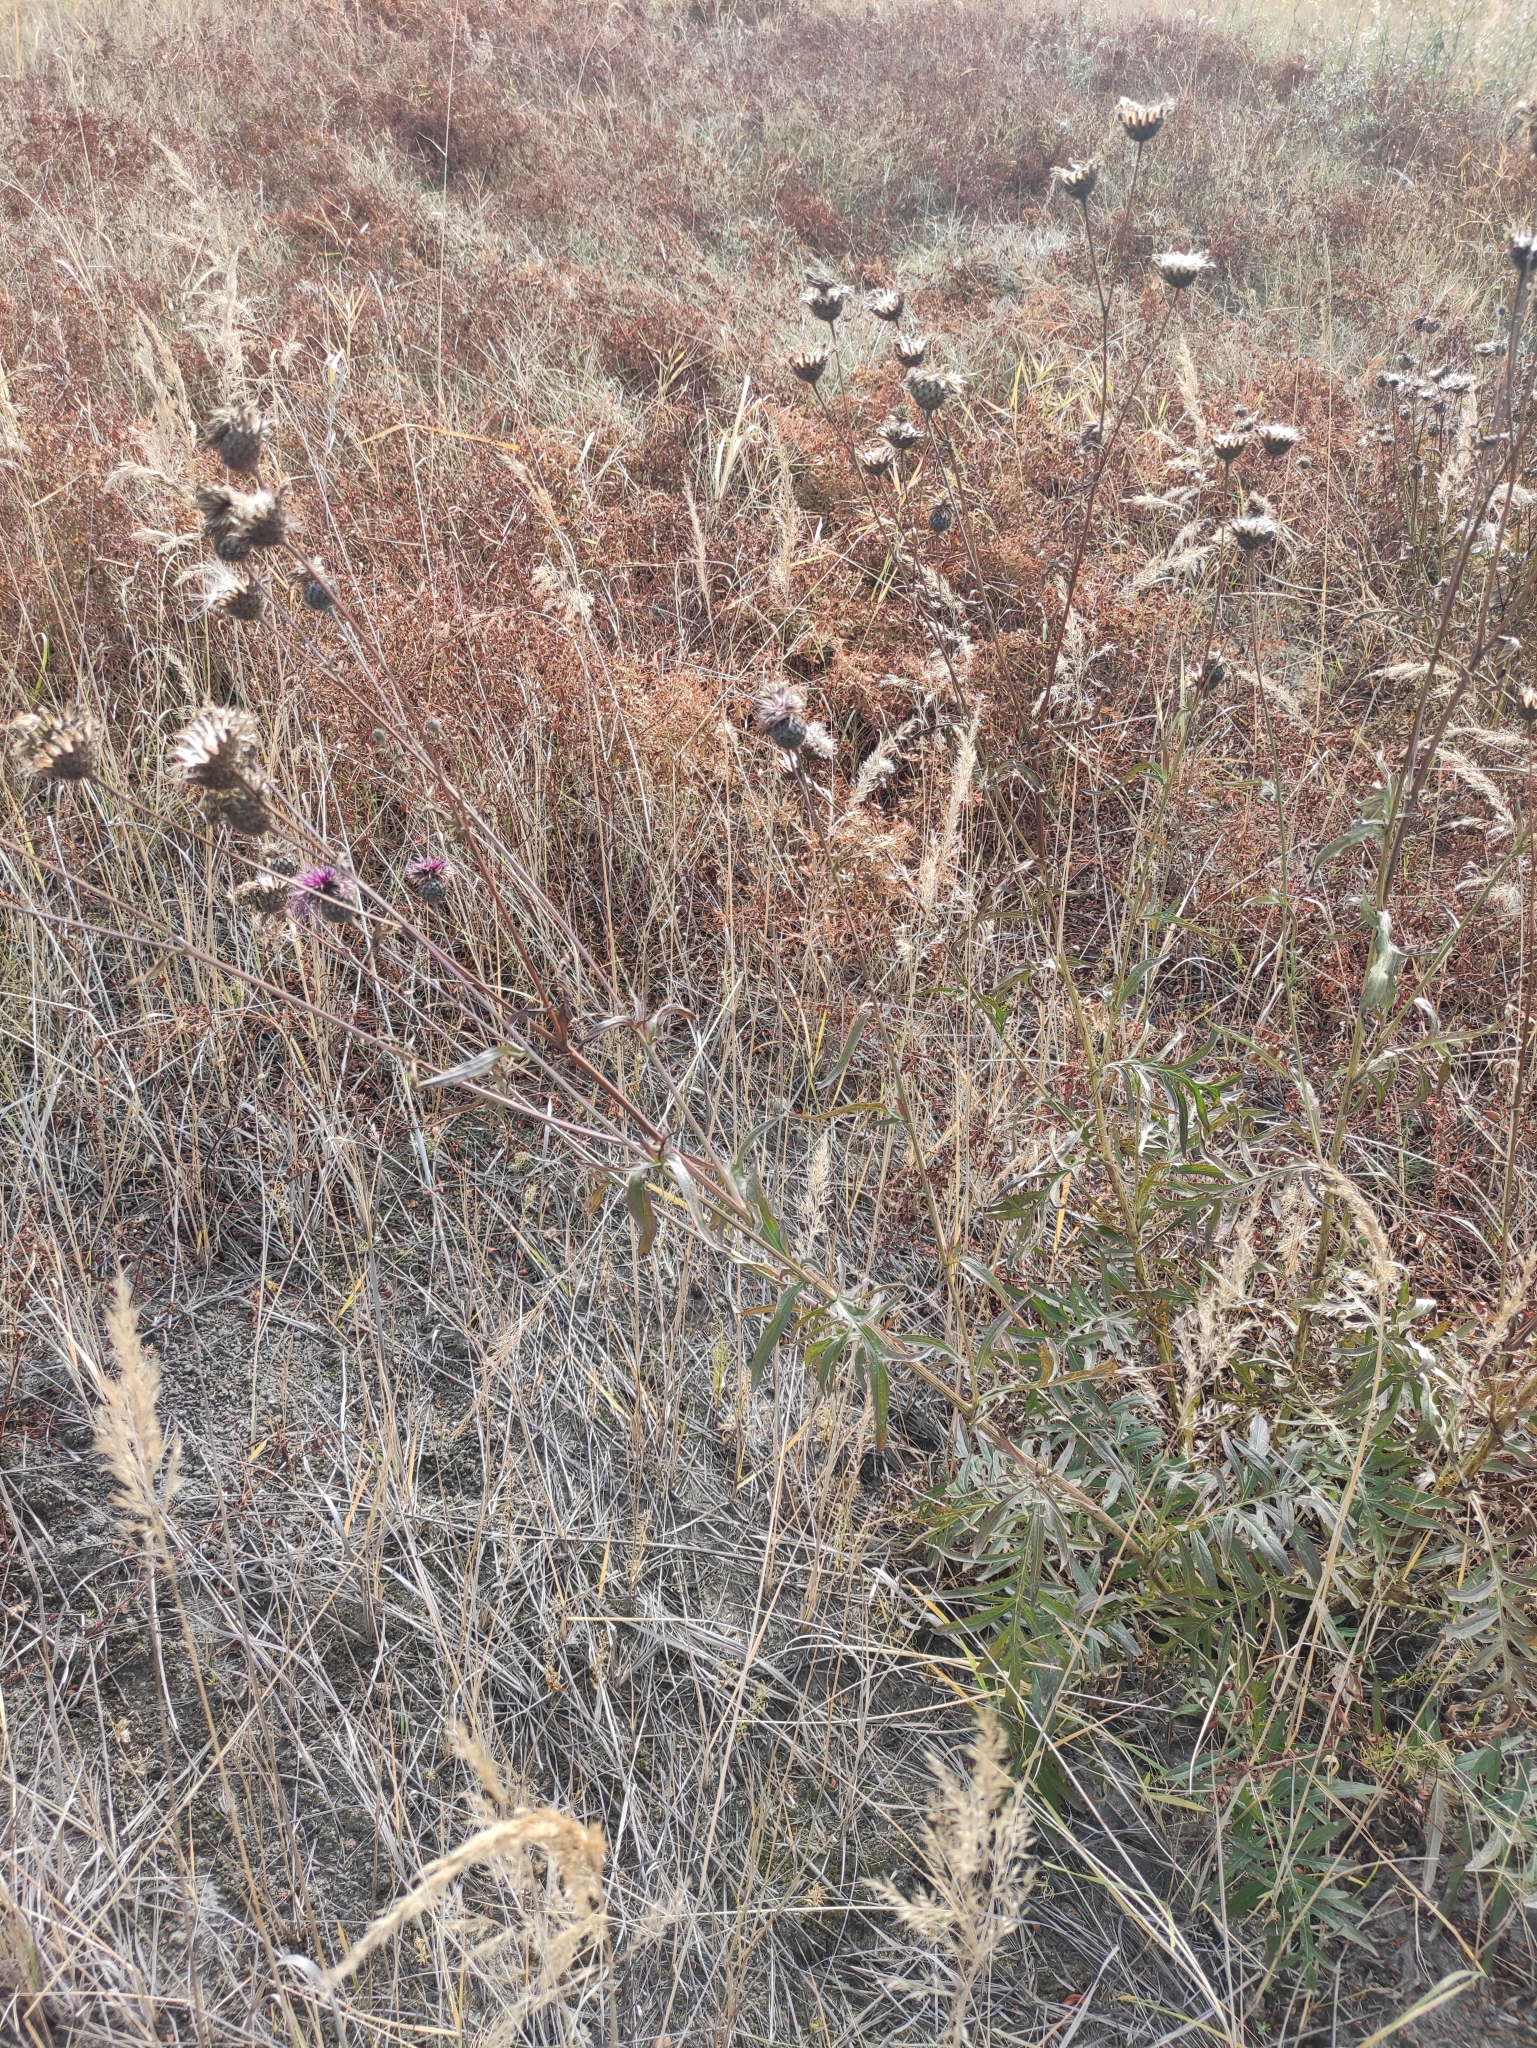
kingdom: Plantae
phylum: Tracheophyta
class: Magnoliopsida
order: Asterales
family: Asteraceae
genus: Centaurea
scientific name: Centaurea scabiosa
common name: Greater knapweed
